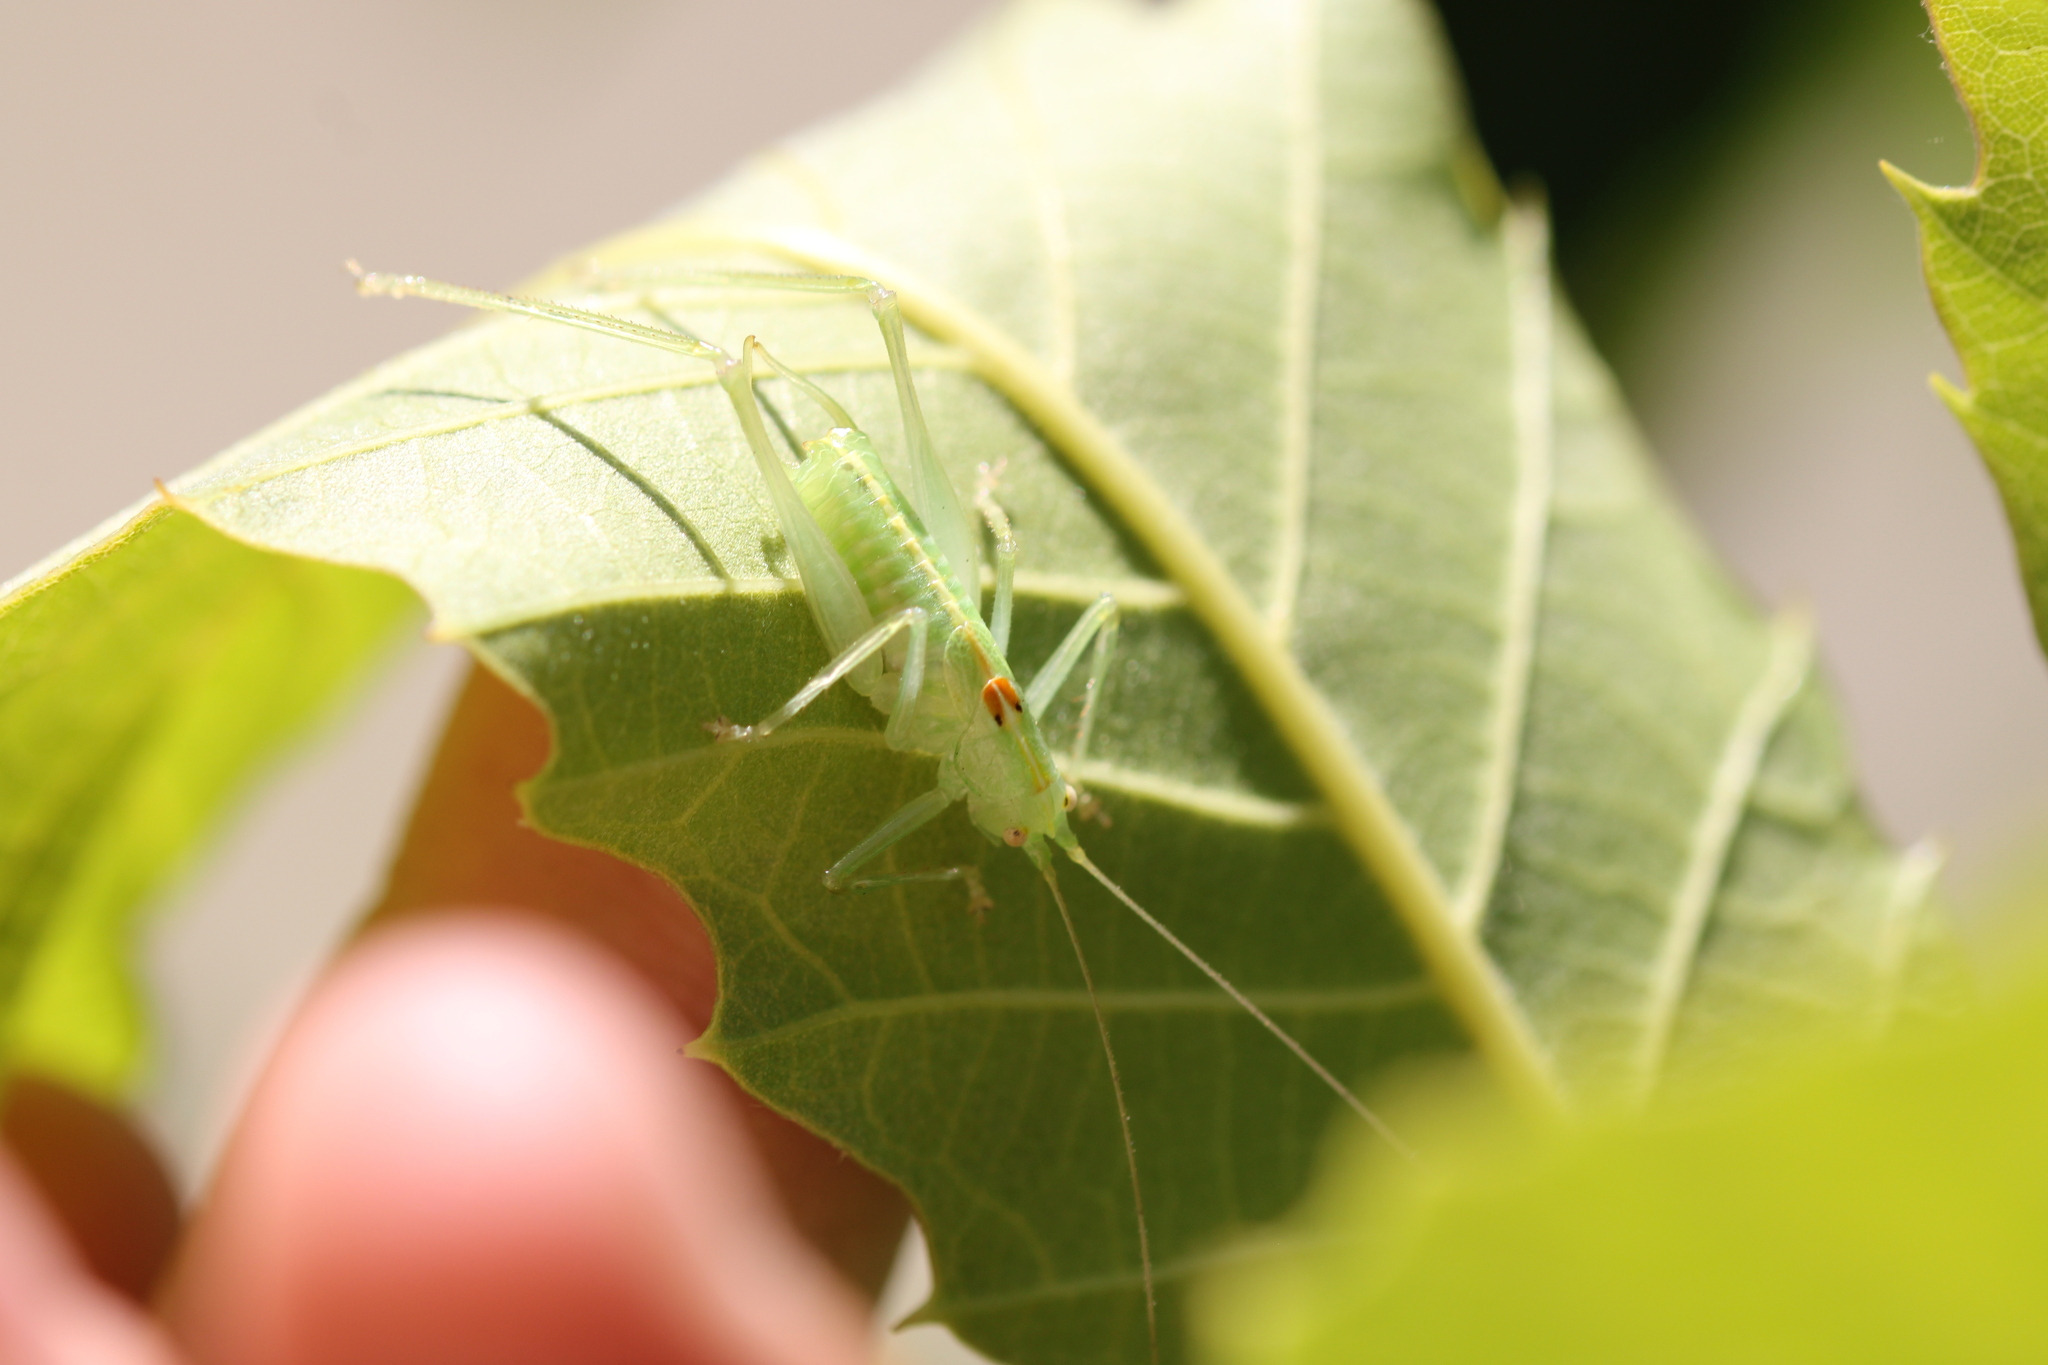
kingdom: Animalia
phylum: Arthropoda
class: Insecta
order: Orthoptera
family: Tettigoniidae
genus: Meconema
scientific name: Meconema meridionale
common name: Southern oak bush-cricket
